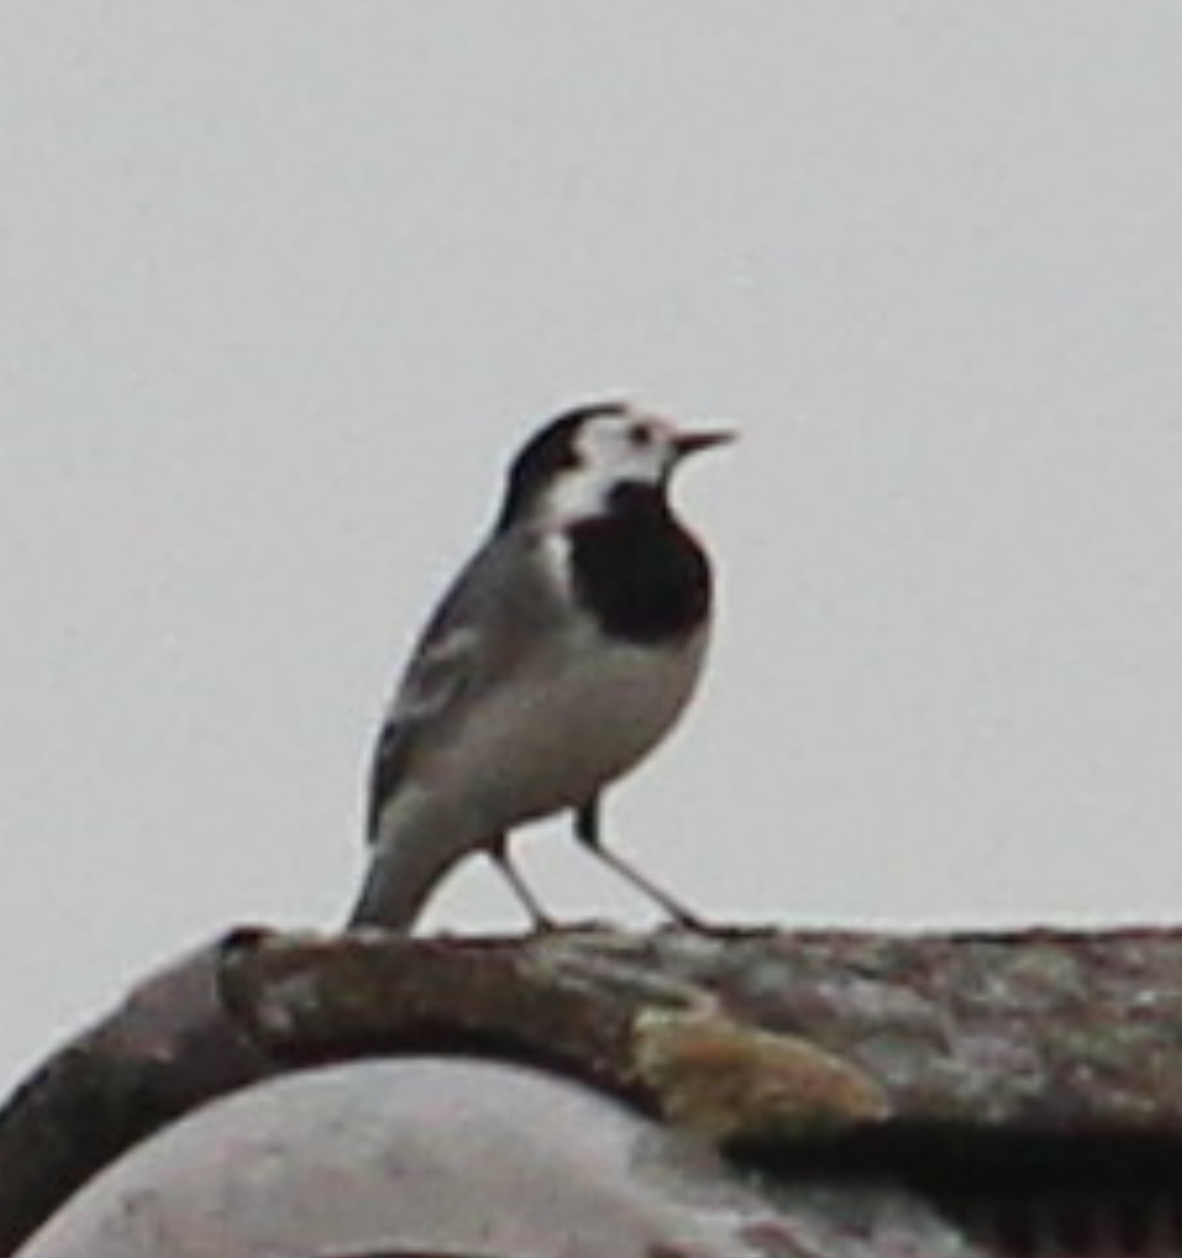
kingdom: Animalia
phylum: Chordata
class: Aves
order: Passeriformes
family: Motacillidae
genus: Motacilla
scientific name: Motacilla alba
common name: White wagtail
